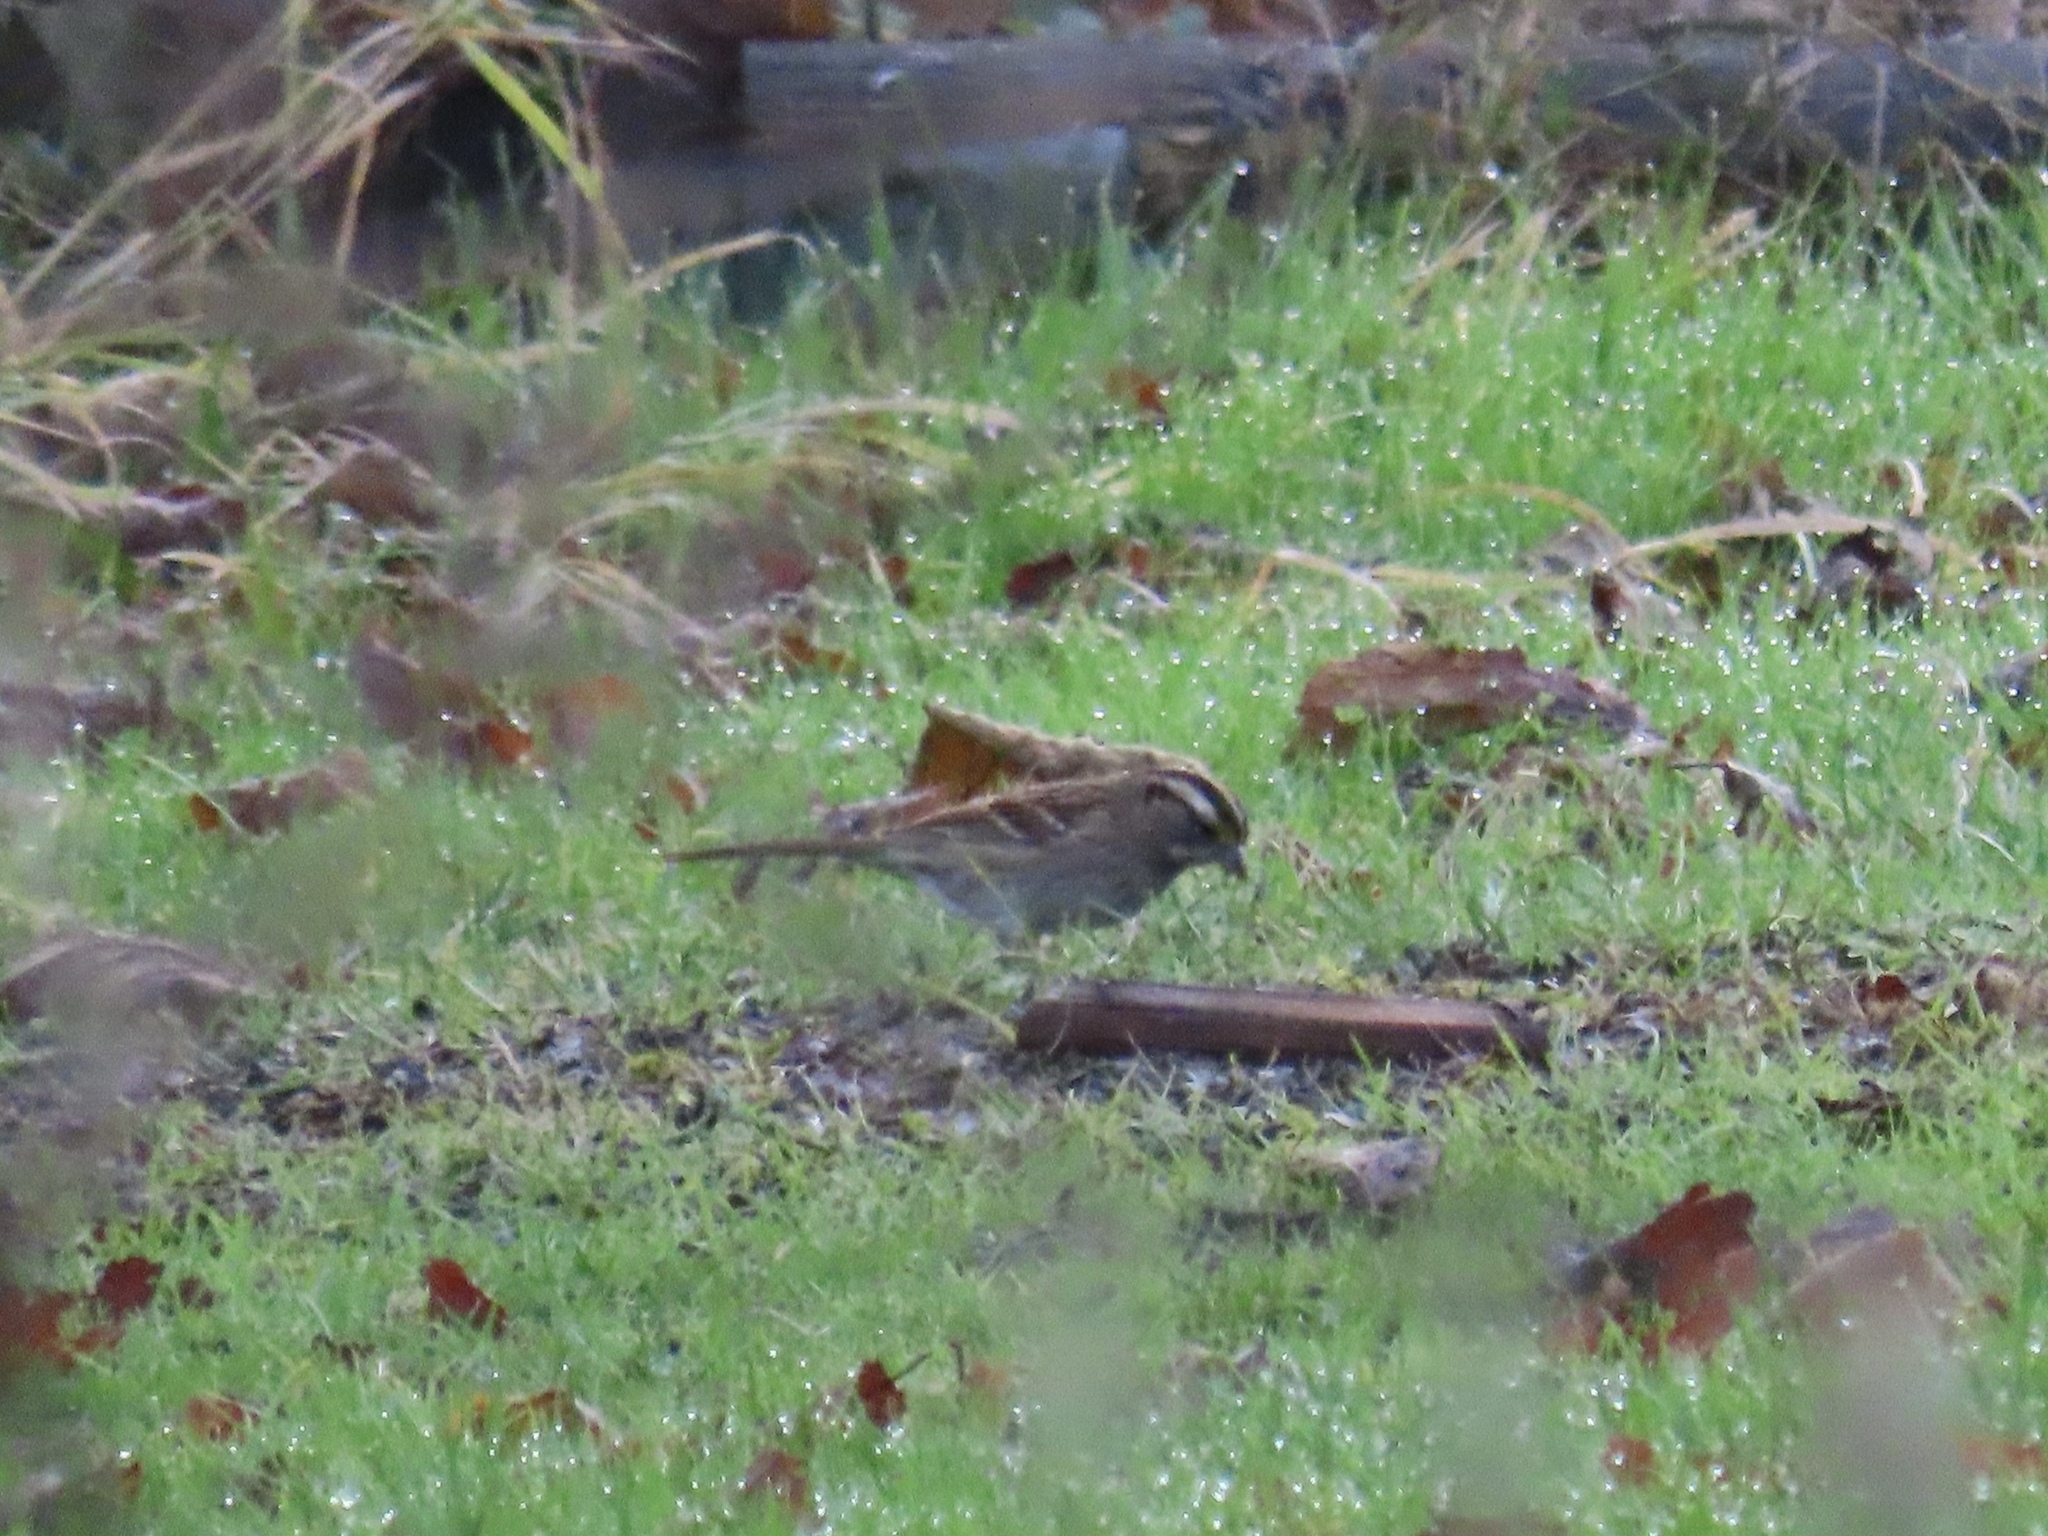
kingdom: Animalia
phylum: Chordata
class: Aves
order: Passeriformes
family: Passerellidae
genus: Zonotrichia
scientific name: Zonotrichia albicollis
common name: White-throated sparrow
